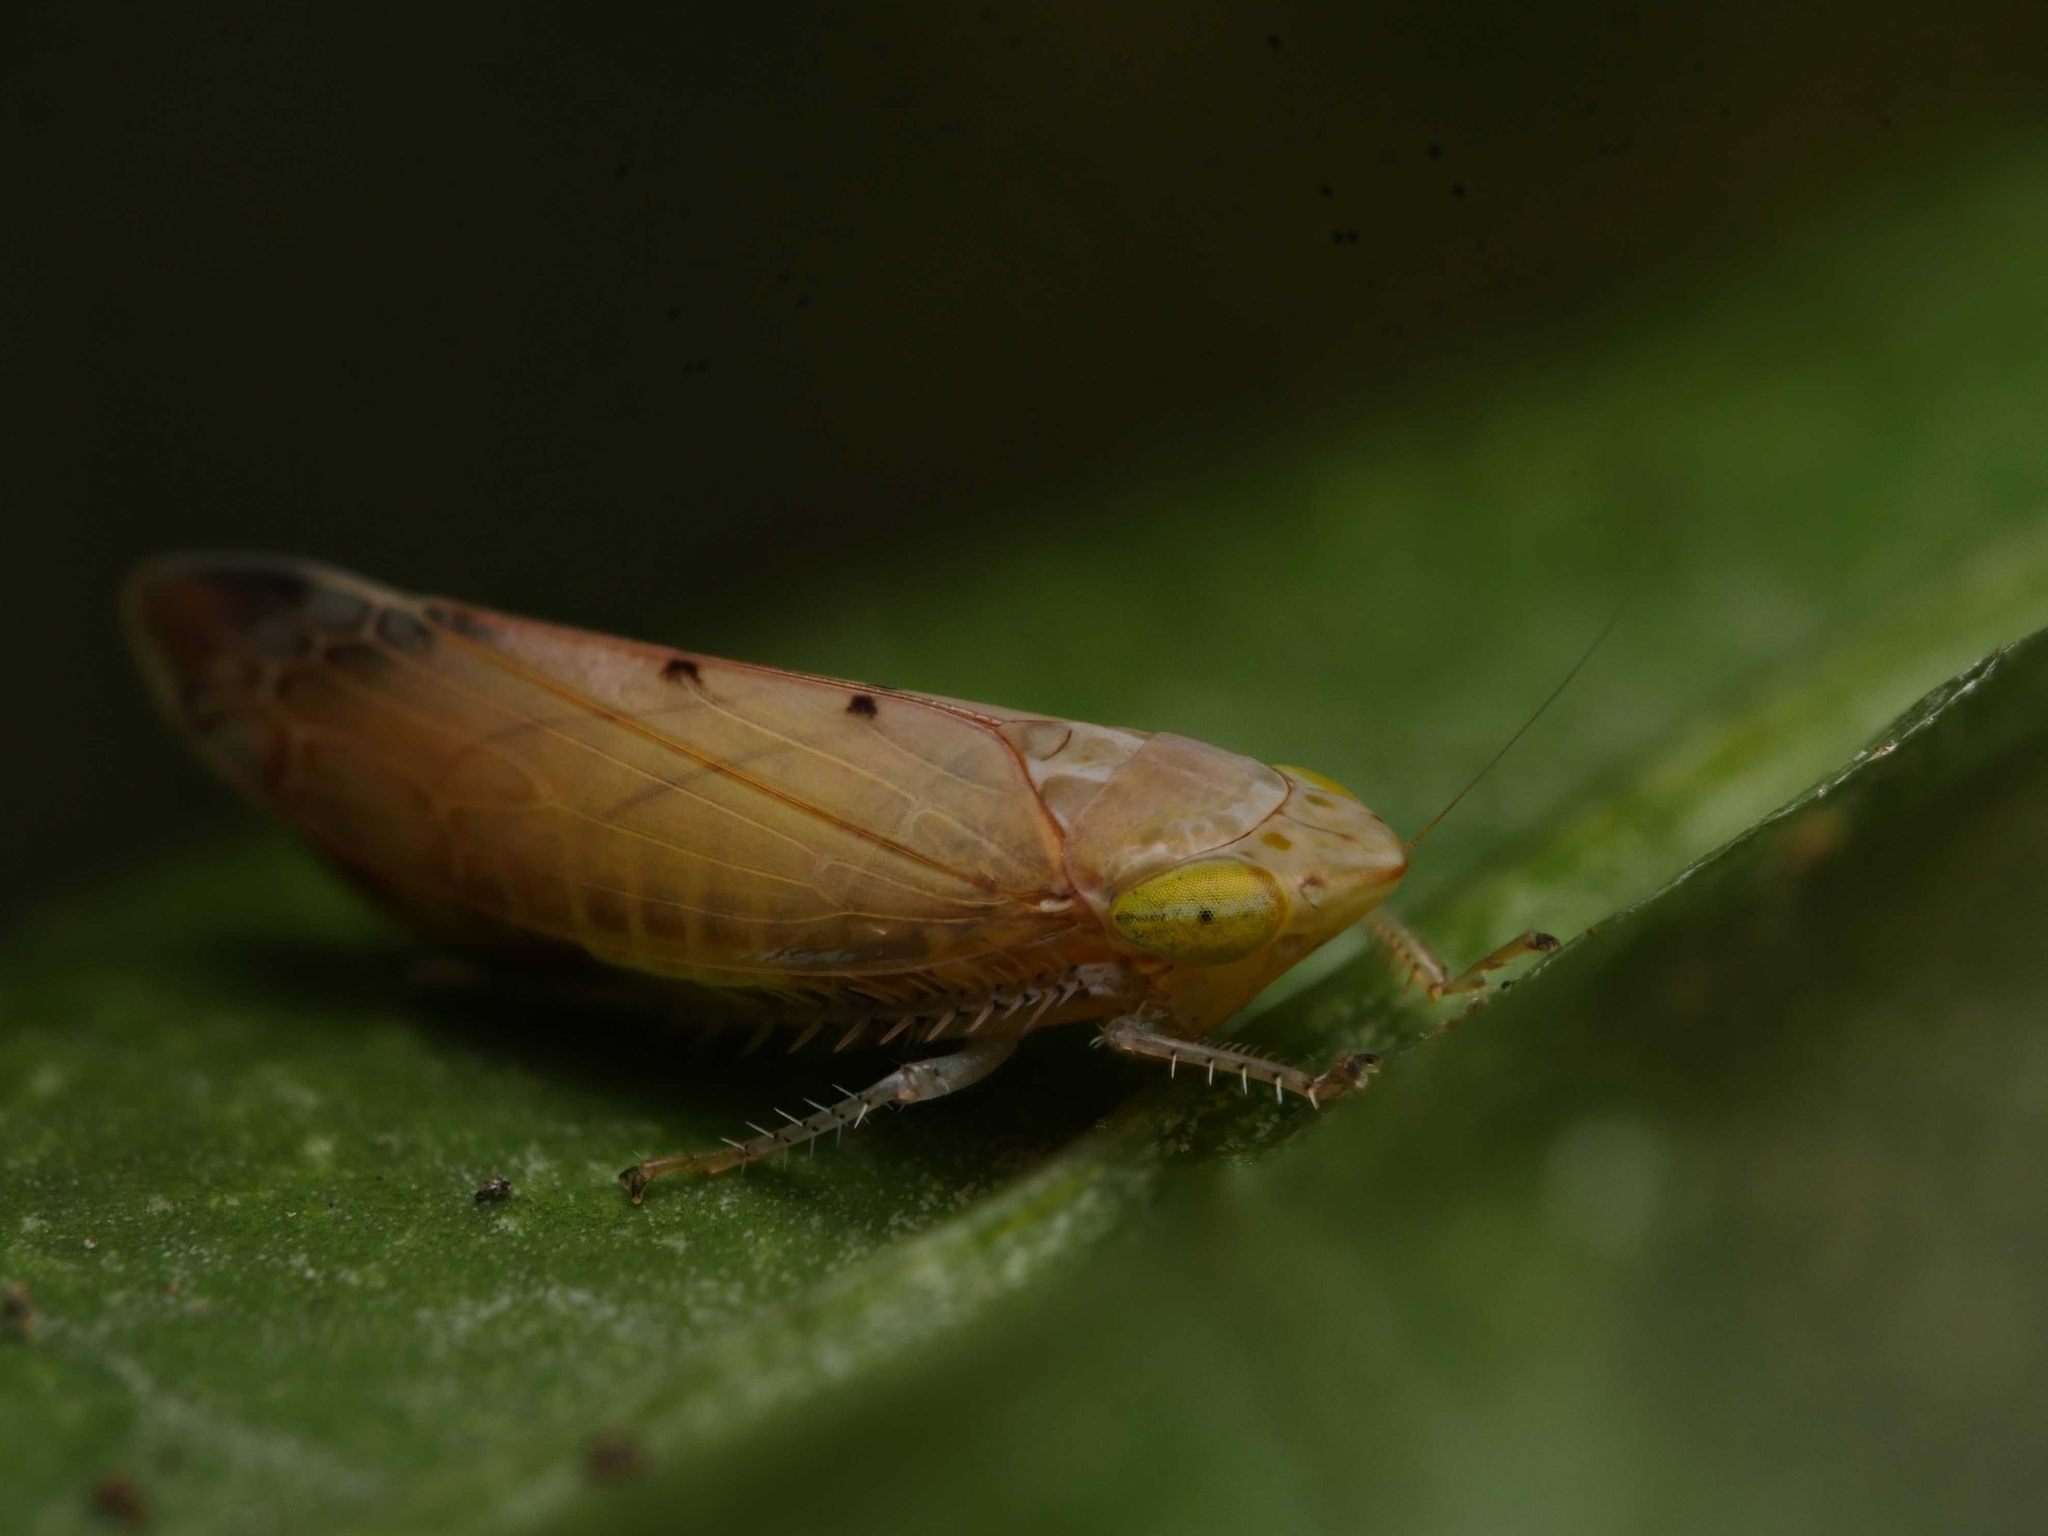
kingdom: Animalia
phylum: Arthropoda
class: Insecta
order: Hemiptera
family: Cicadellidae
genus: Synophropsis
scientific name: Synophropsis lauri
